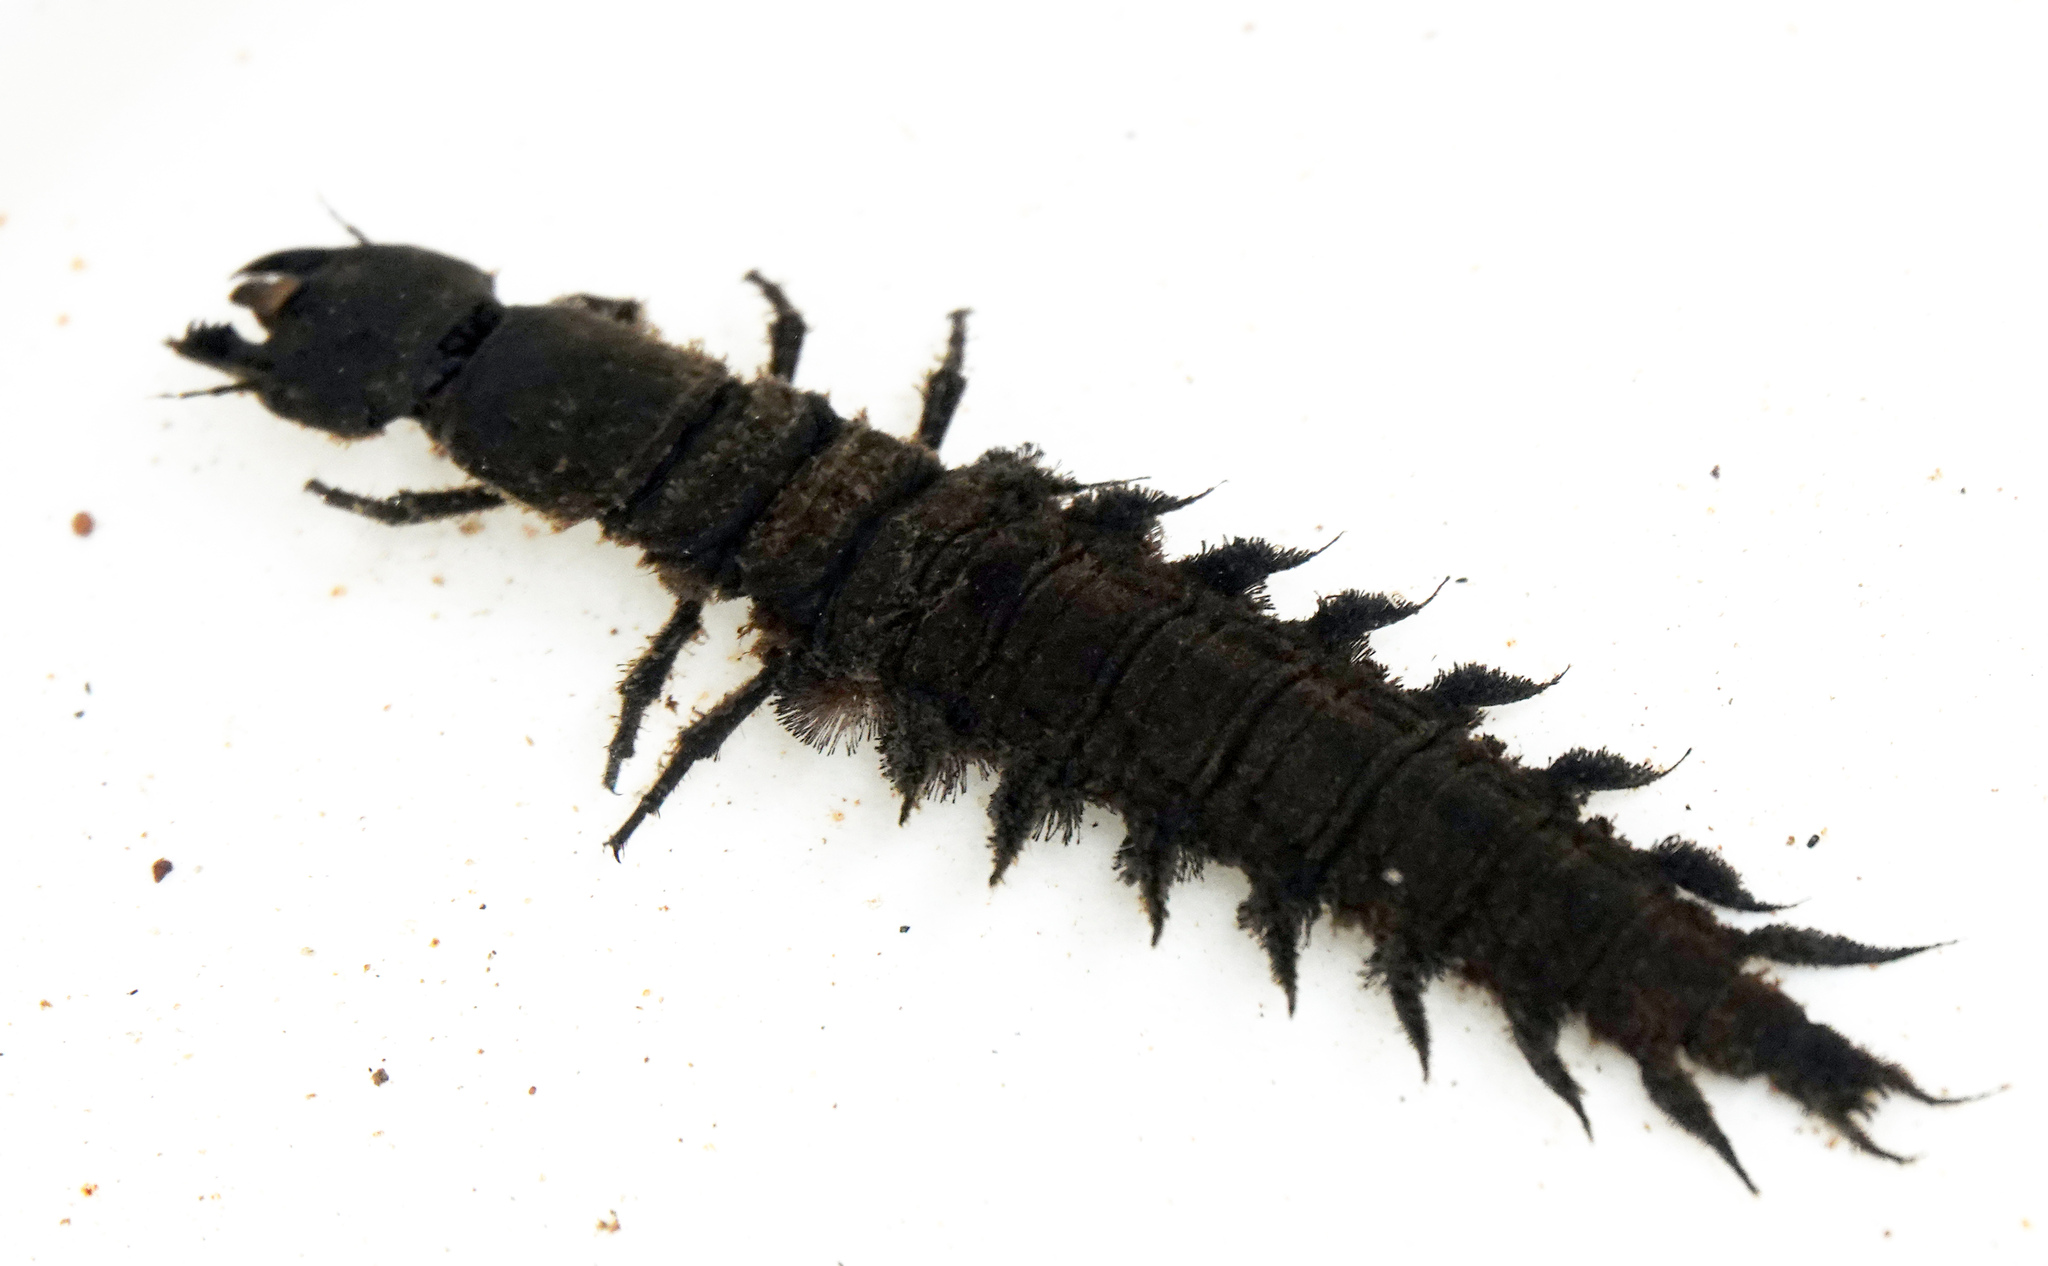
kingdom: Animalia
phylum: Arthropoda
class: Insecta
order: Megaloptera
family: Corydalidae
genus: Corydalus
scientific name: Corydalus cornutus
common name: Dobsonfly
